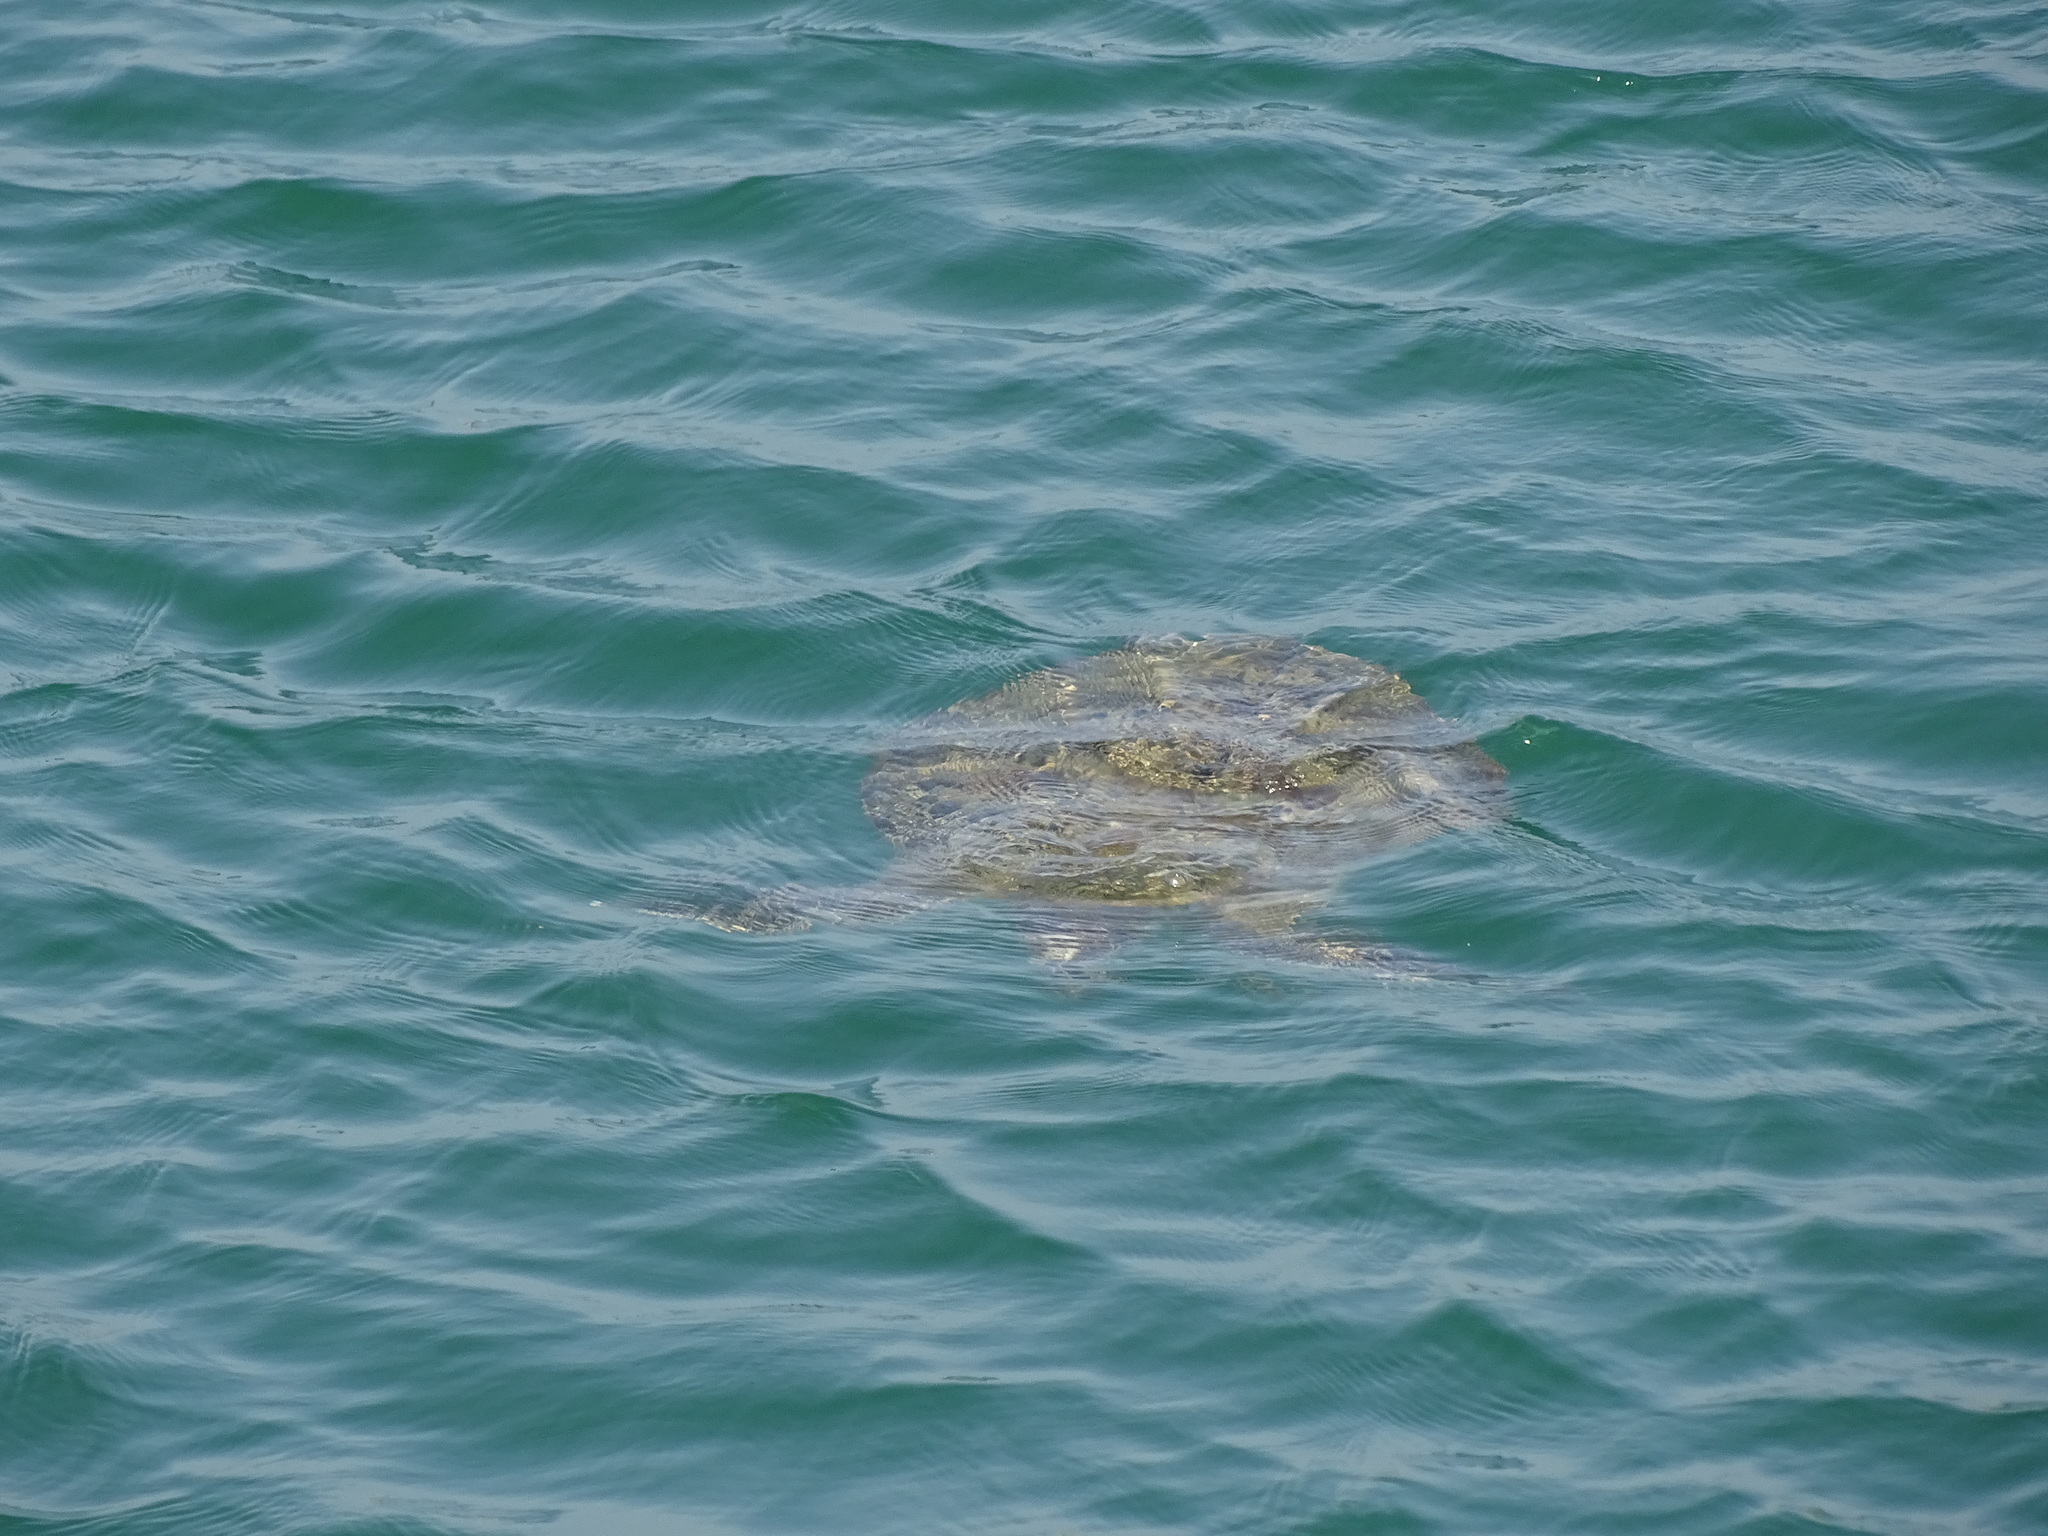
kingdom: Animalia
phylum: Chordata
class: Testudines
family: Cheloniidae
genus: Chelonia
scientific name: Chelonia mydas
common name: Green turtle
